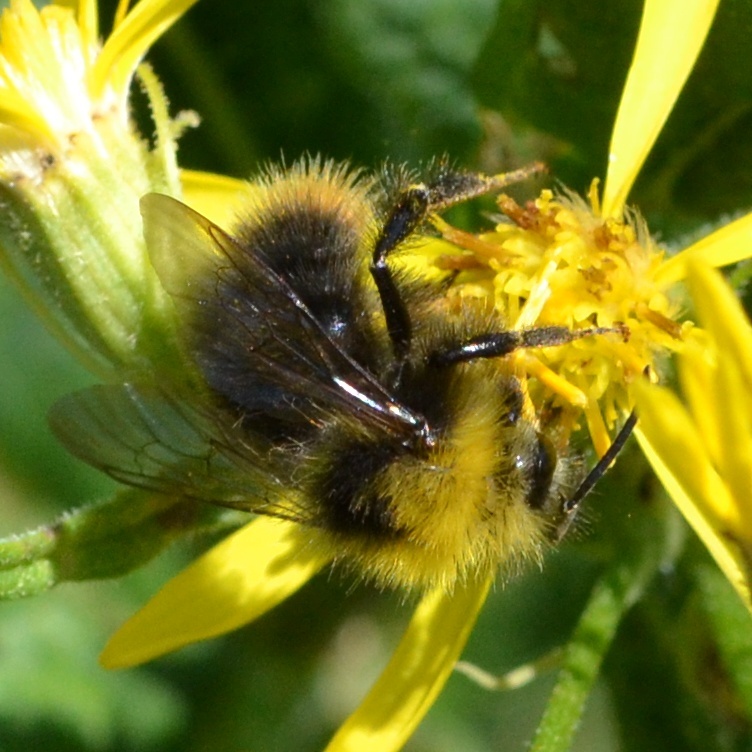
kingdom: Animalia
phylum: Arthropoda
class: Insecta
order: Hymenoptera
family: Apidae
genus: Bombus
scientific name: Bombus pratorum
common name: Early humble-bee
